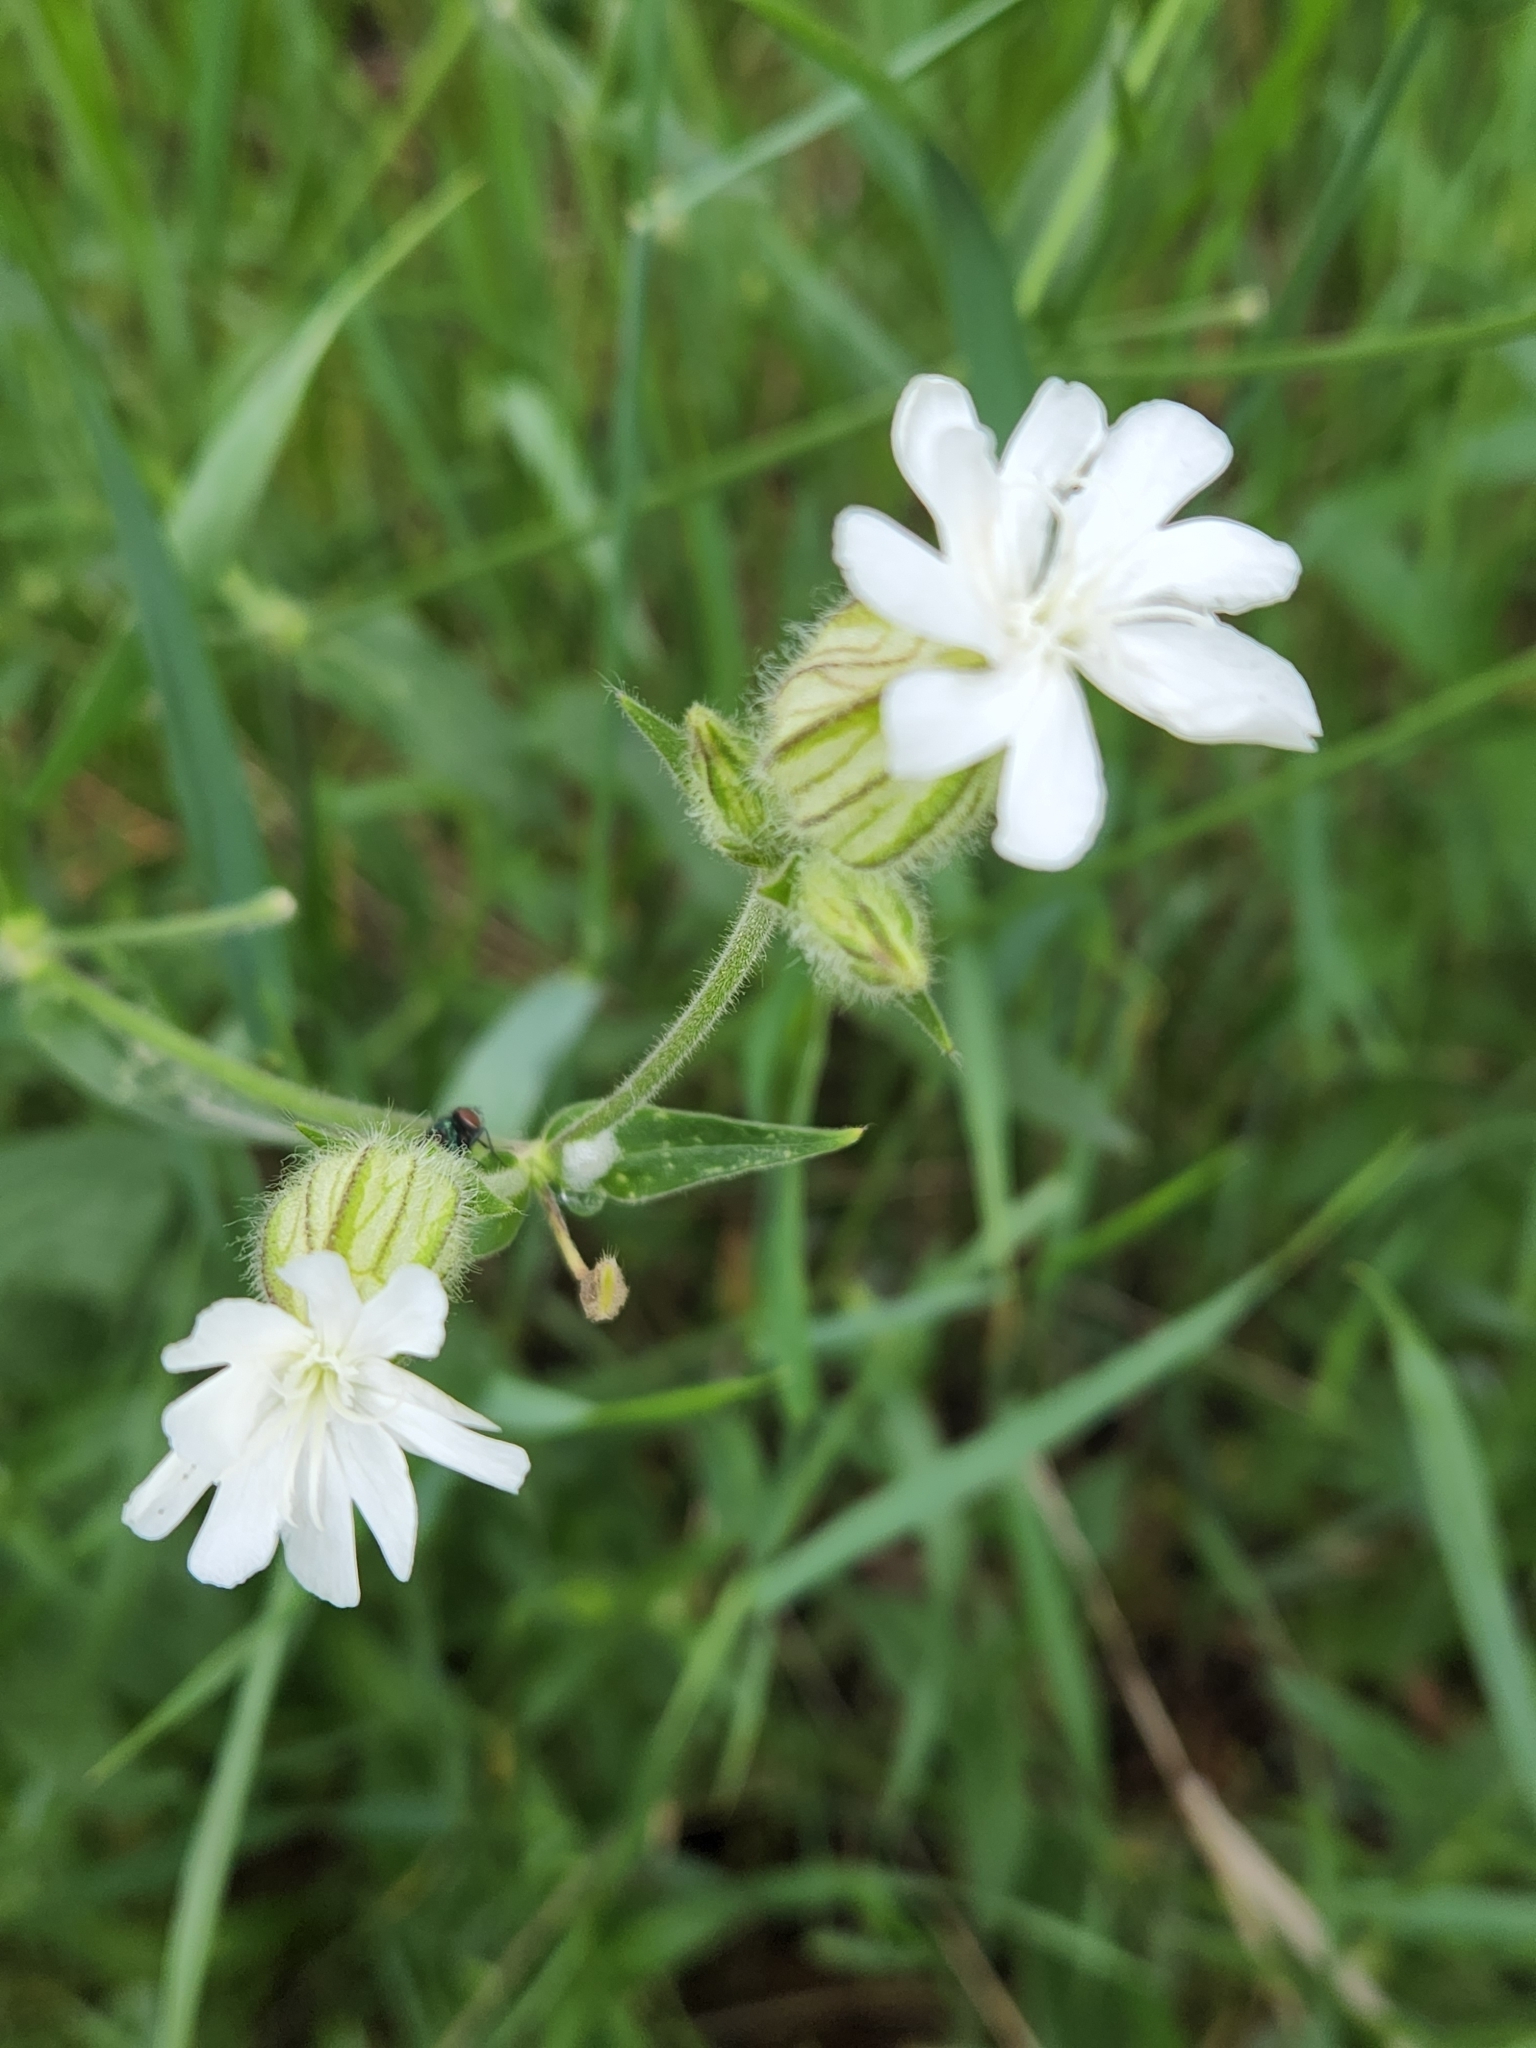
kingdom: Plantae
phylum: Tracheophyta
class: Magnoliopsida
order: Caryophyllales
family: Caryophyllaceae
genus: Silene
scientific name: Silene latifolia
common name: White campion
